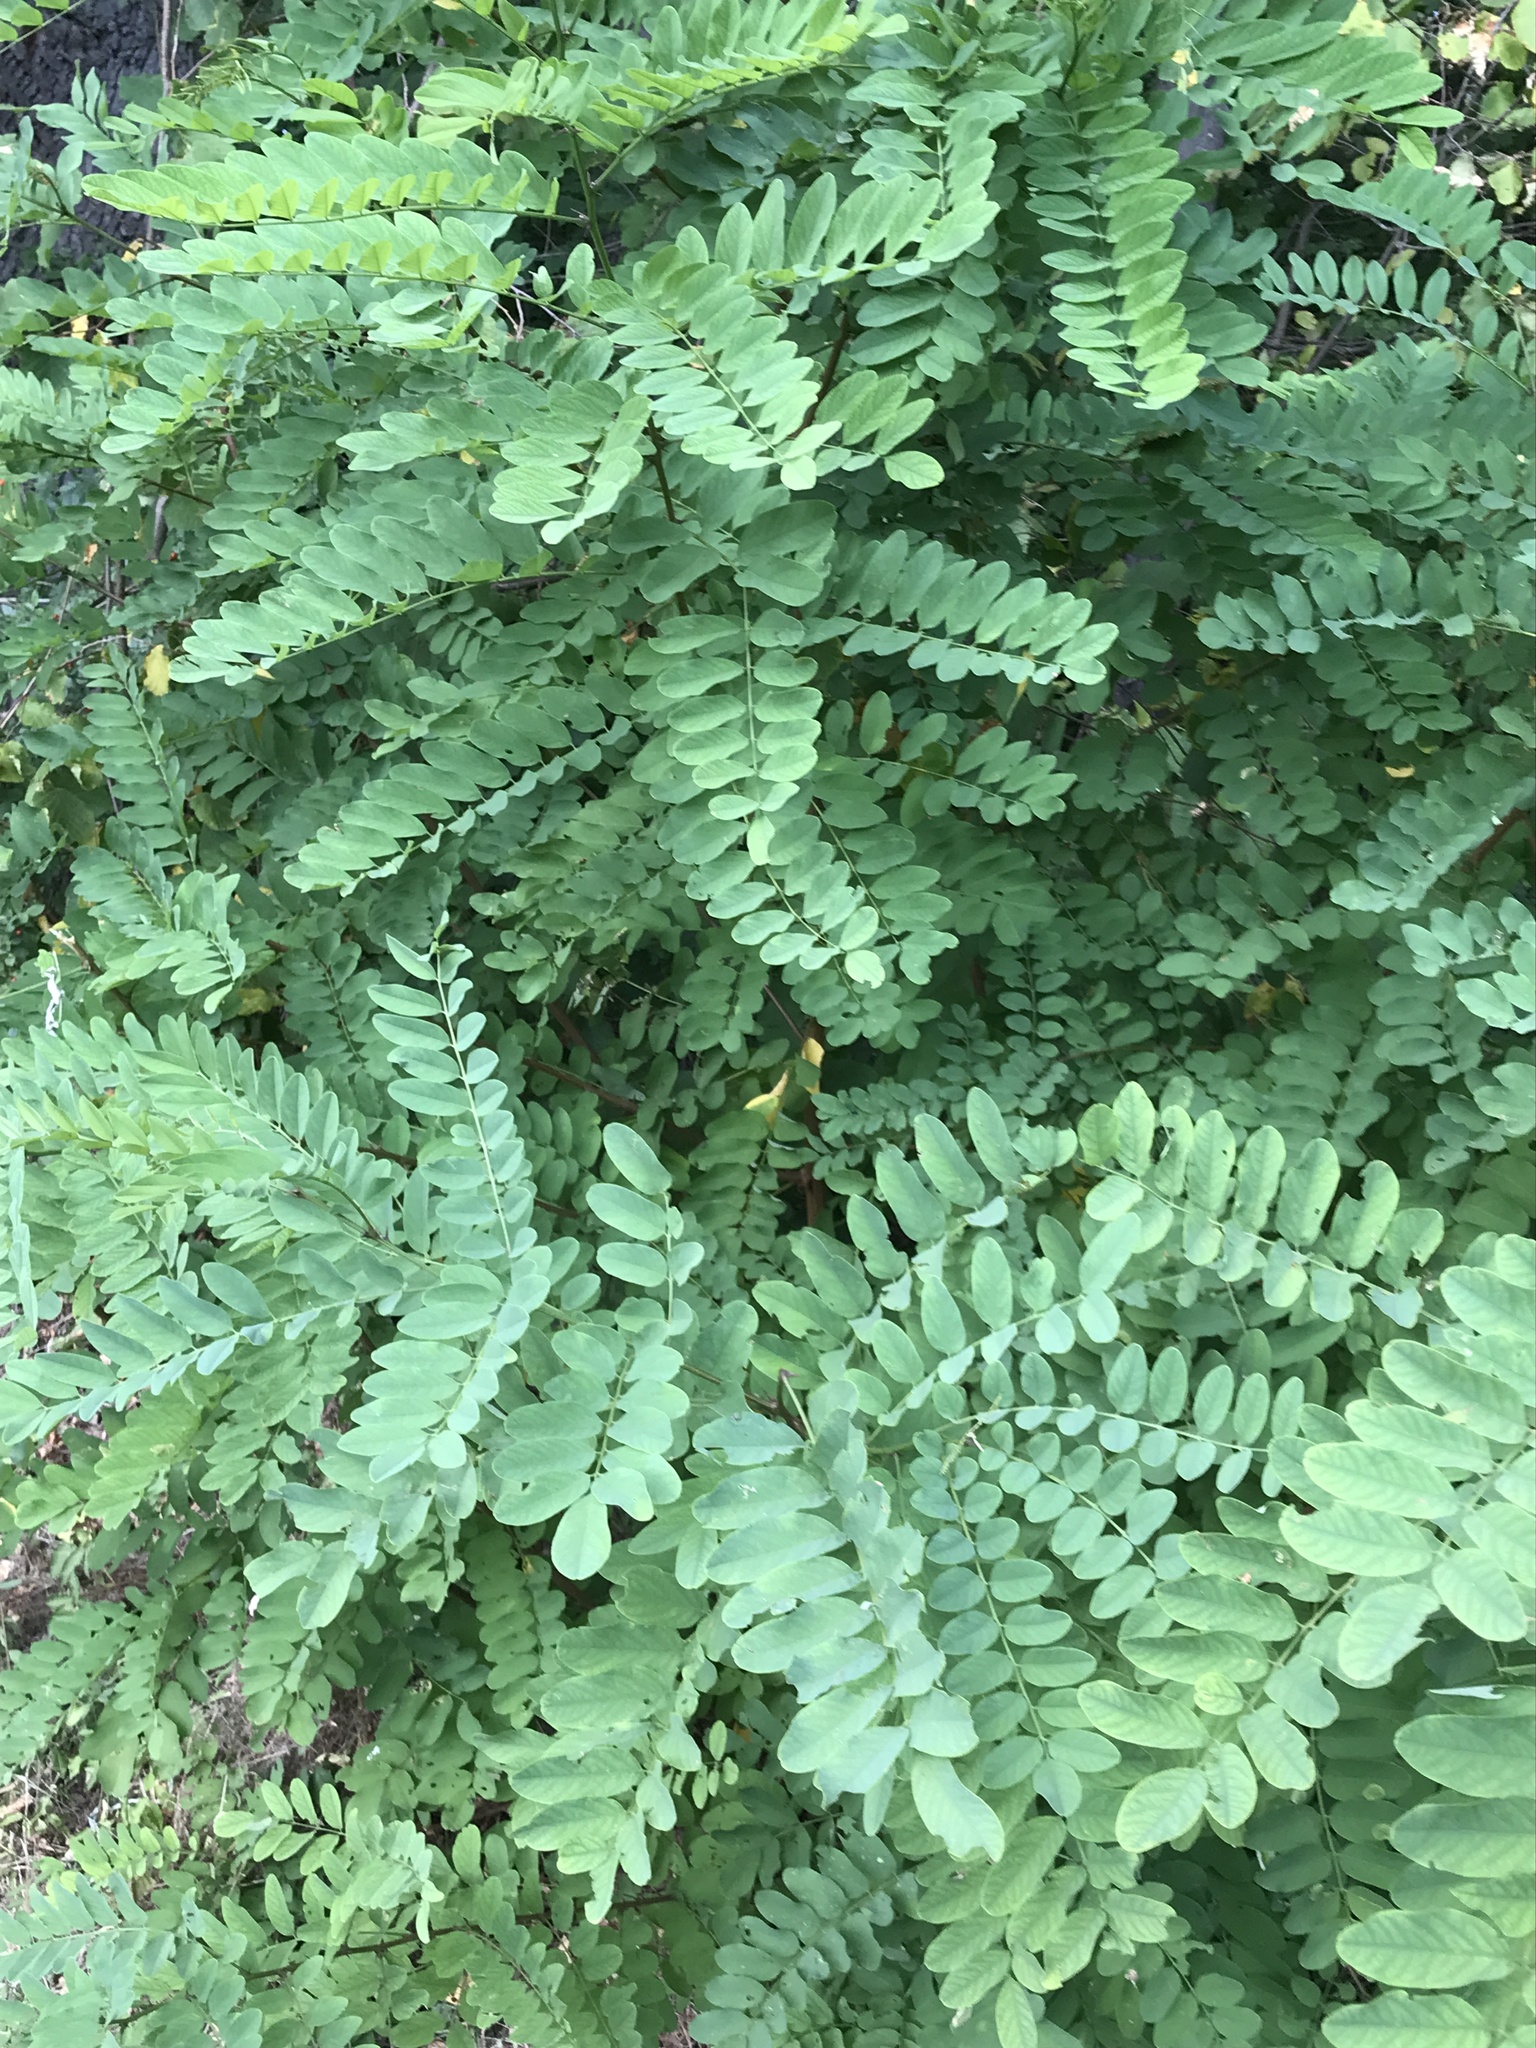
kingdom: Plantae
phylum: Tracheophyta
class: Magnoliopsida
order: Fabales
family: Fabaceae
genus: Robinia
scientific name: Robinia pseudoacacia
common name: Black locust
